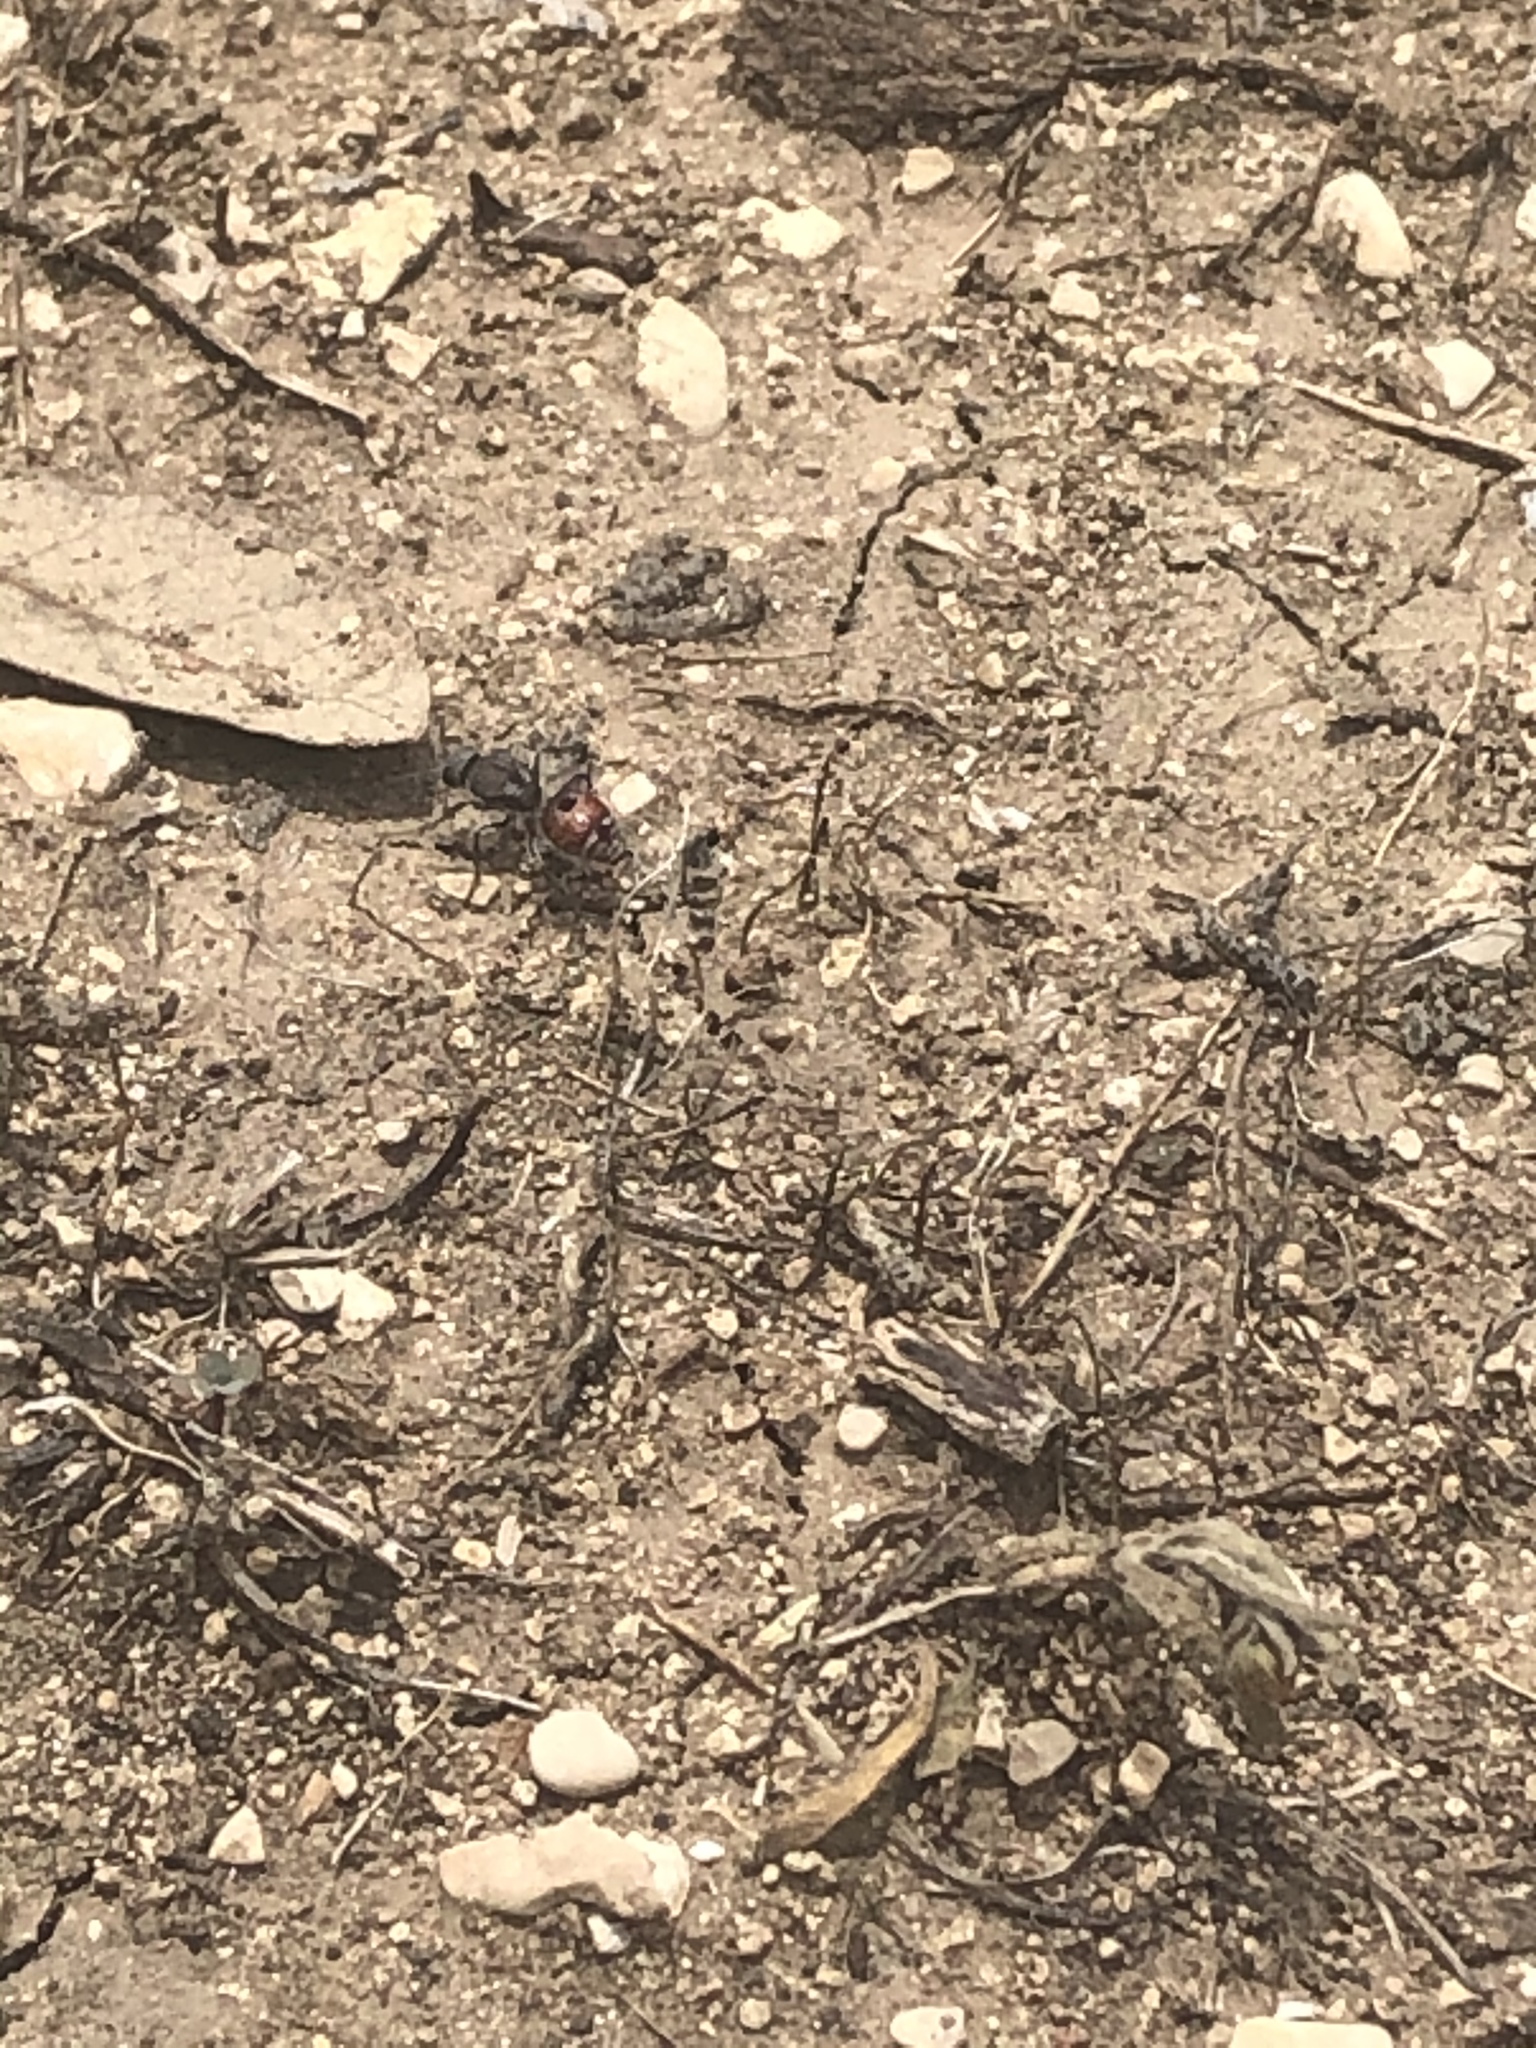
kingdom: Animalia
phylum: Arthropoda
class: Insecta
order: Hymenoptera
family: Mutillidae
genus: Dasymutilla
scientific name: Dasymutilla eurynome
